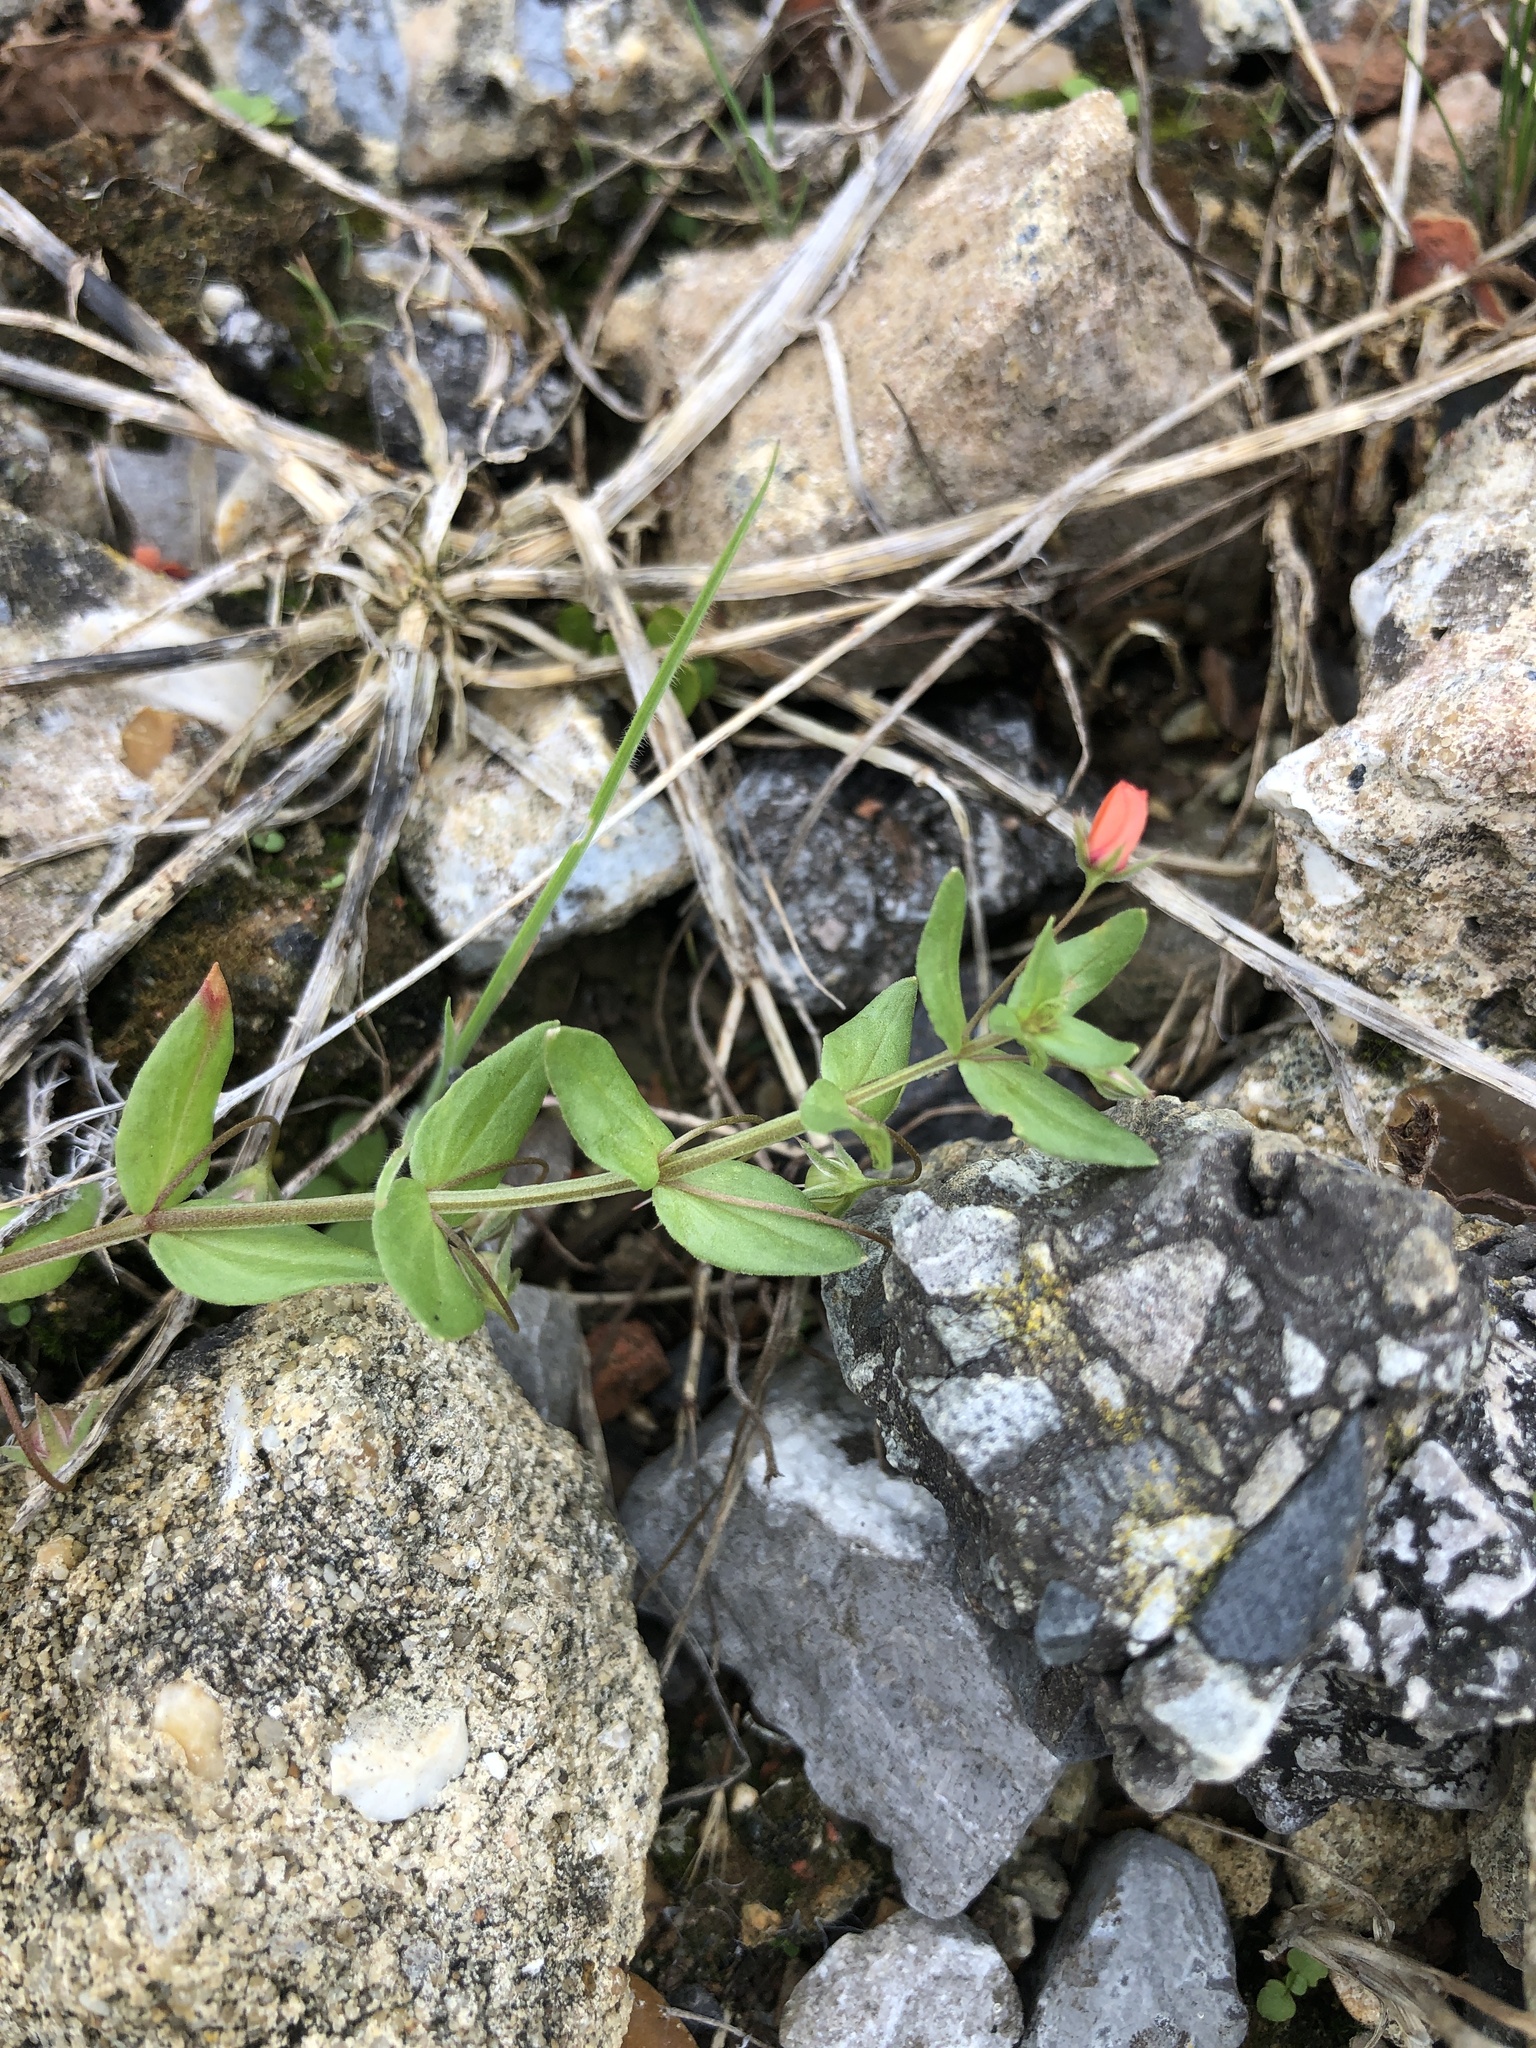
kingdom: Plantae
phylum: Tracheophyta
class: Magnoliopsida
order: Ericales
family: Primulaceae
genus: Lysimachia
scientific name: Lysimachia arvensis
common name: Scarlet pimpernel
